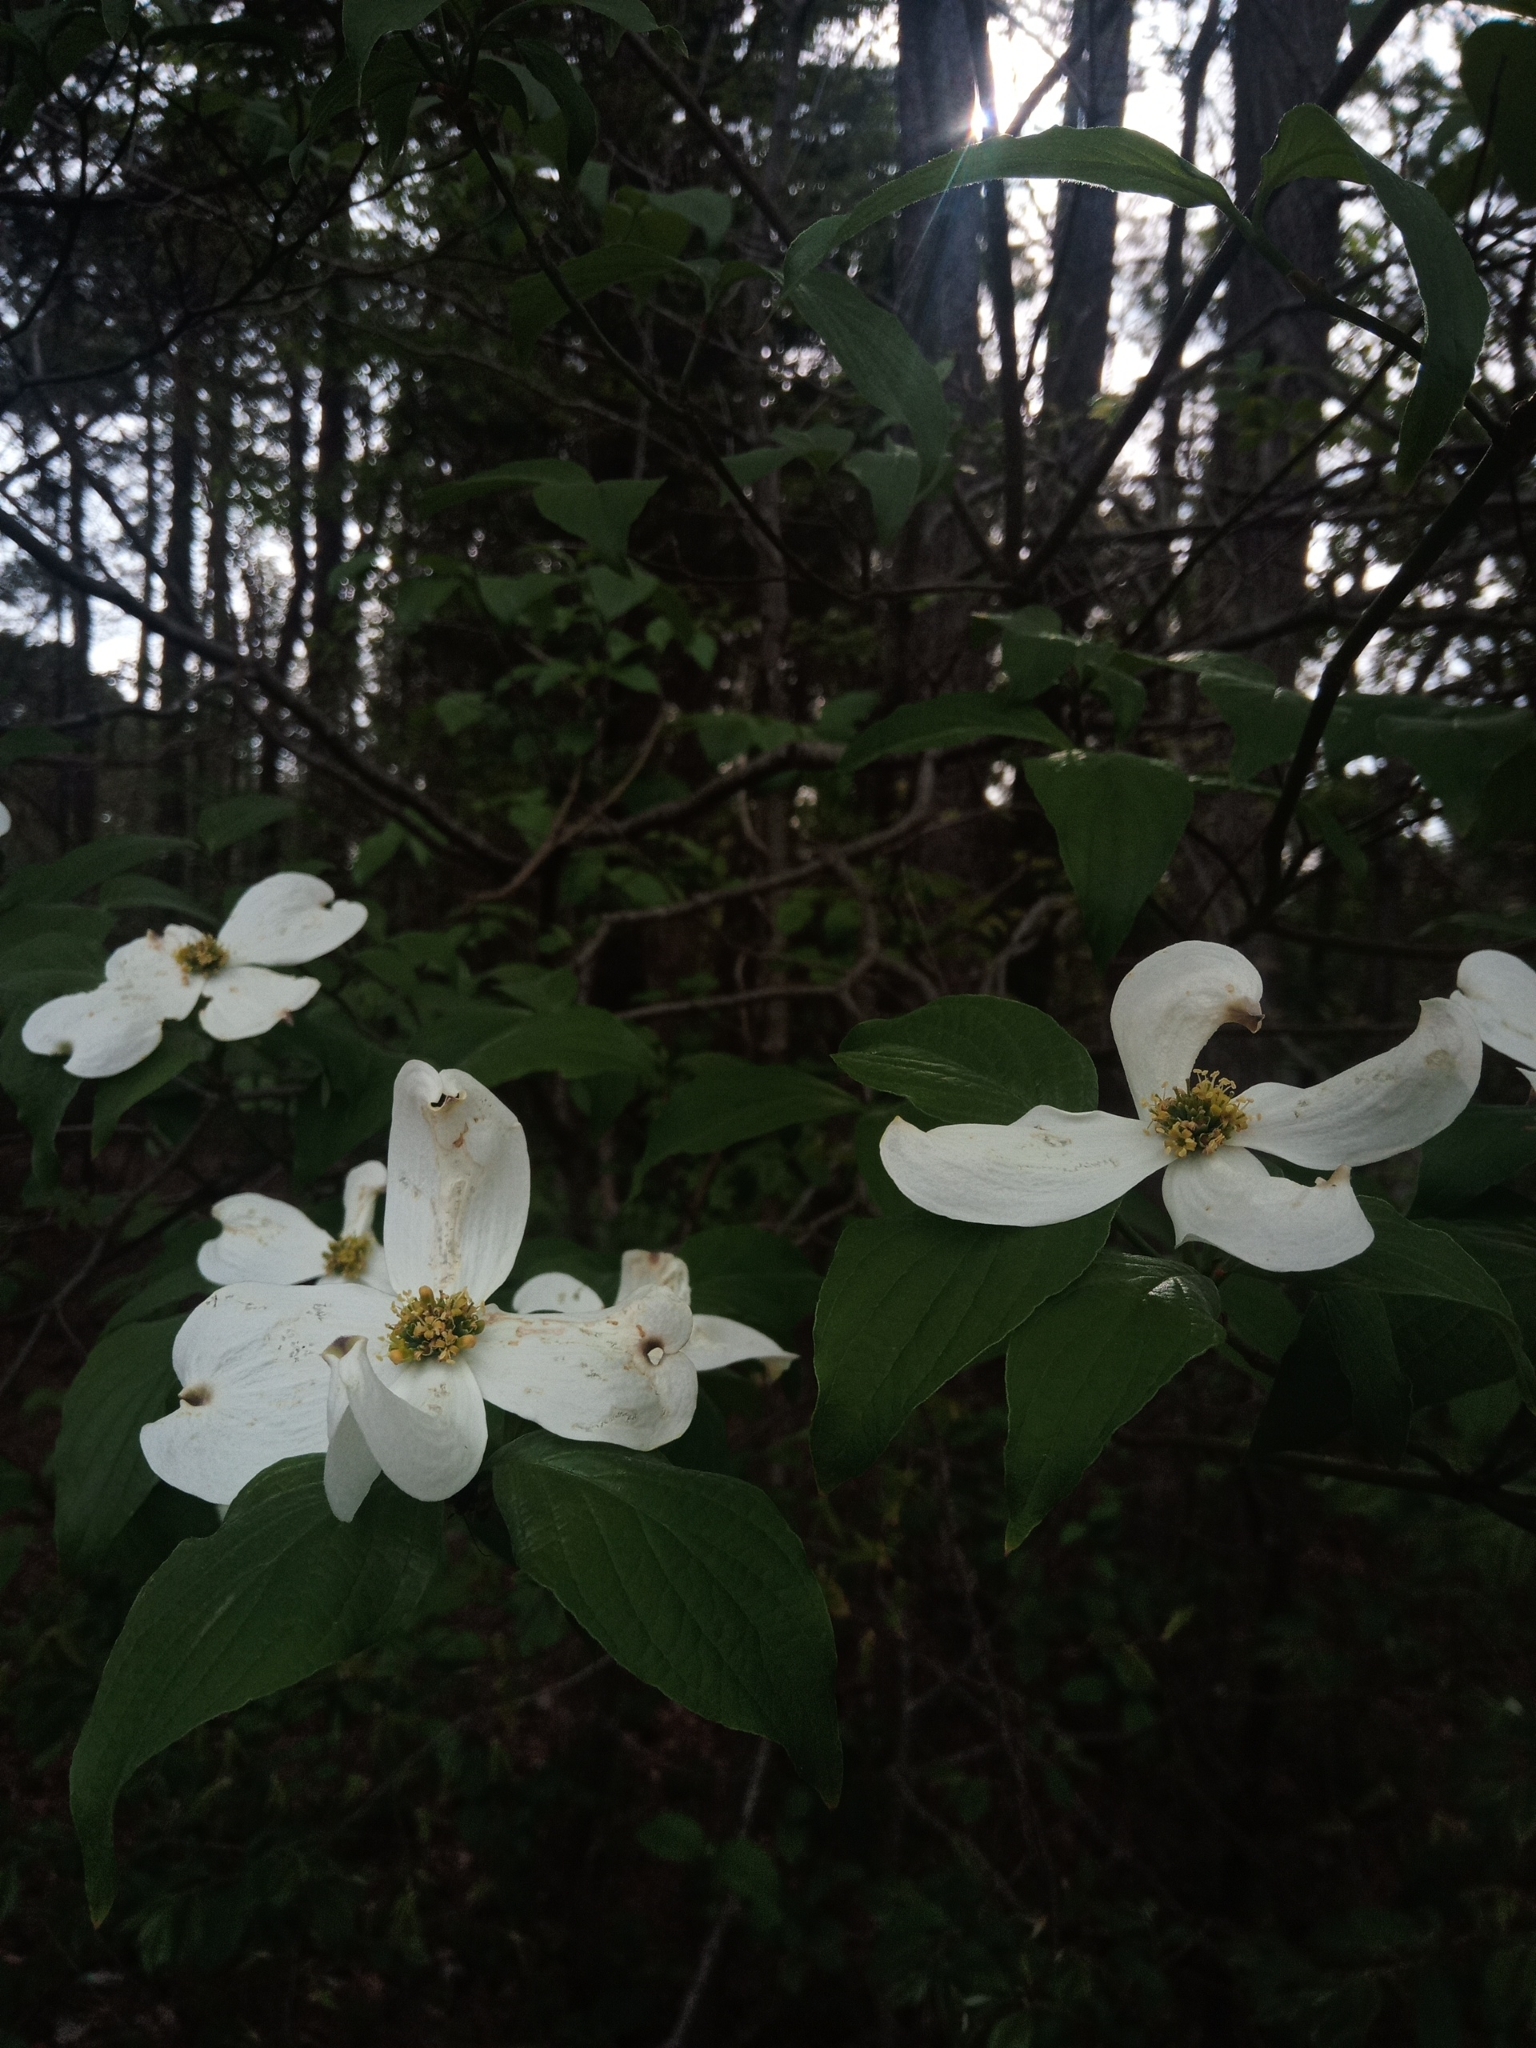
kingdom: Plantae
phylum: Tracheophyta
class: Magnoliopsida
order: Cornales
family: Cornaceae
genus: Cornus
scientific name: Cornus florida
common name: Flowering dogwood
